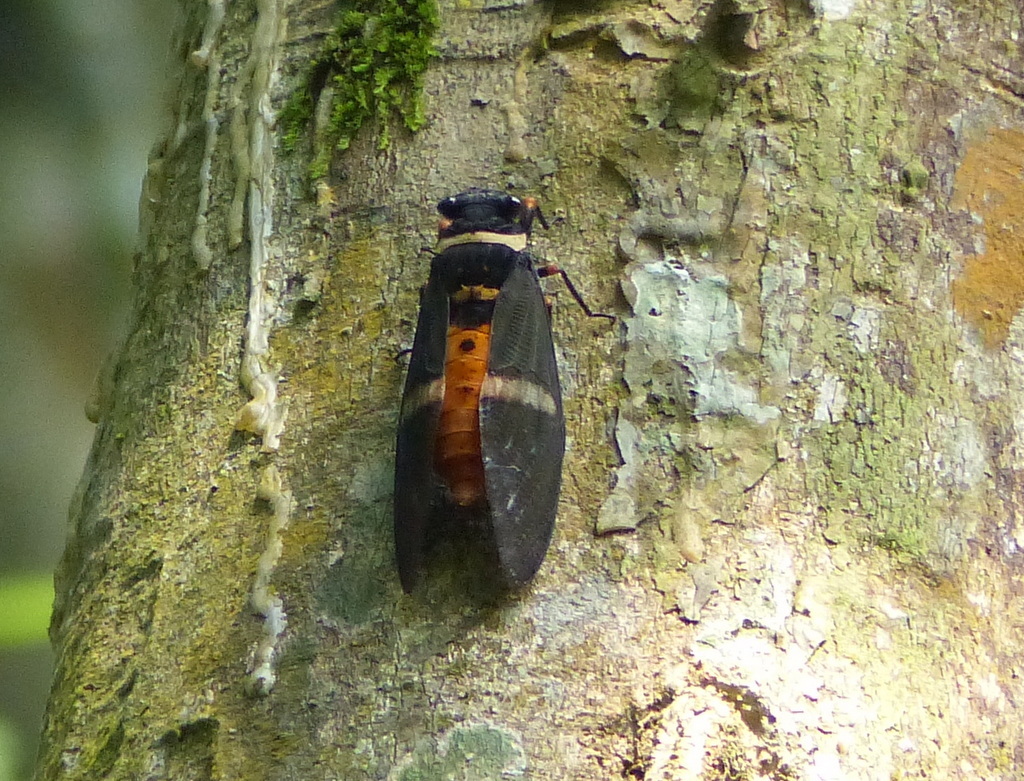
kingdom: Animalia
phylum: Arthropoda
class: Insecta
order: Hemiptera
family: Cicadidae
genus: Tosena
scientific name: Tosena fasciata
